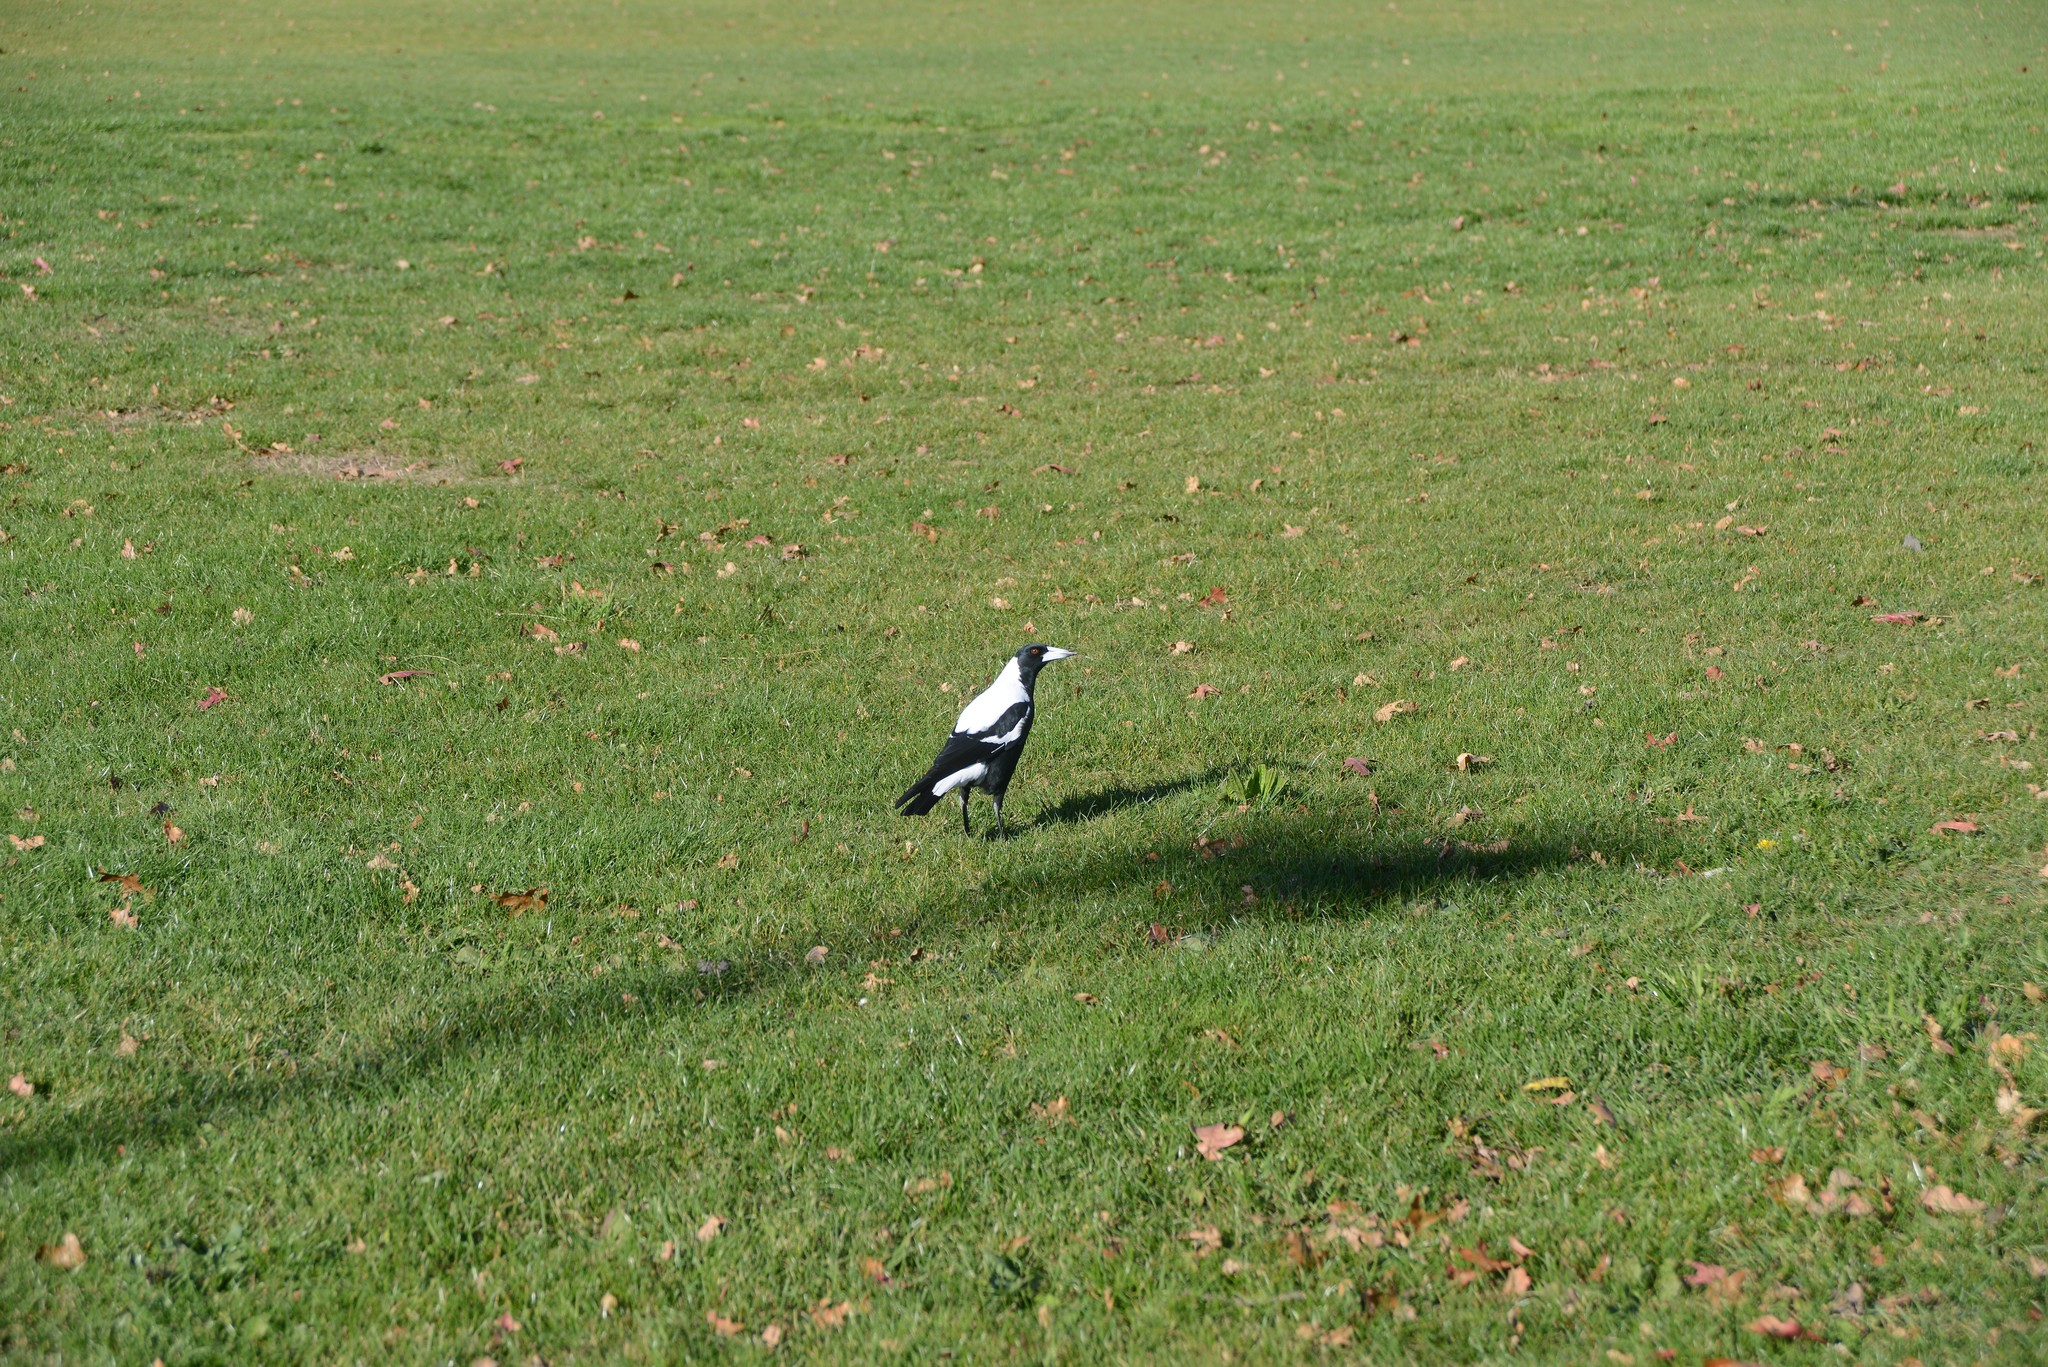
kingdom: Animalia
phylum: Chordata
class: Aves
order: Passeriformes
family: Cracticidae
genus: Gymnorhina
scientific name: Gymnorhina tibicen
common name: Australian magpie
